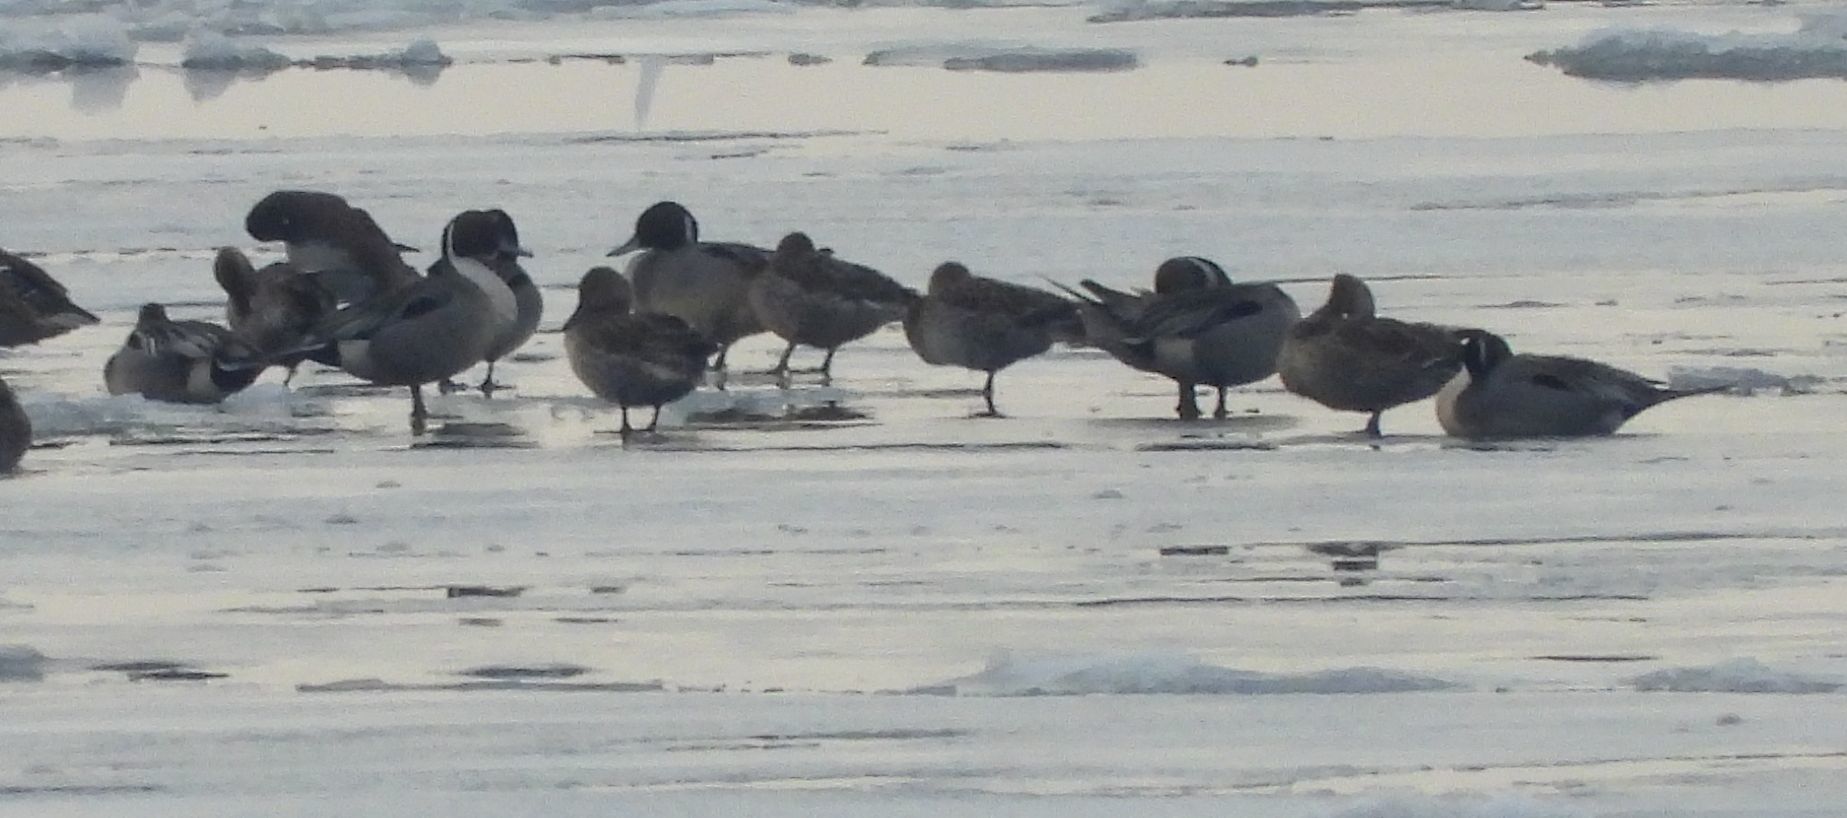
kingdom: Animalia
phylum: Chordata
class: Aves
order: Anseriformes
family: Anatidae
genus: Anas
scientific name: Anas acuta
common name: Northern pintail
